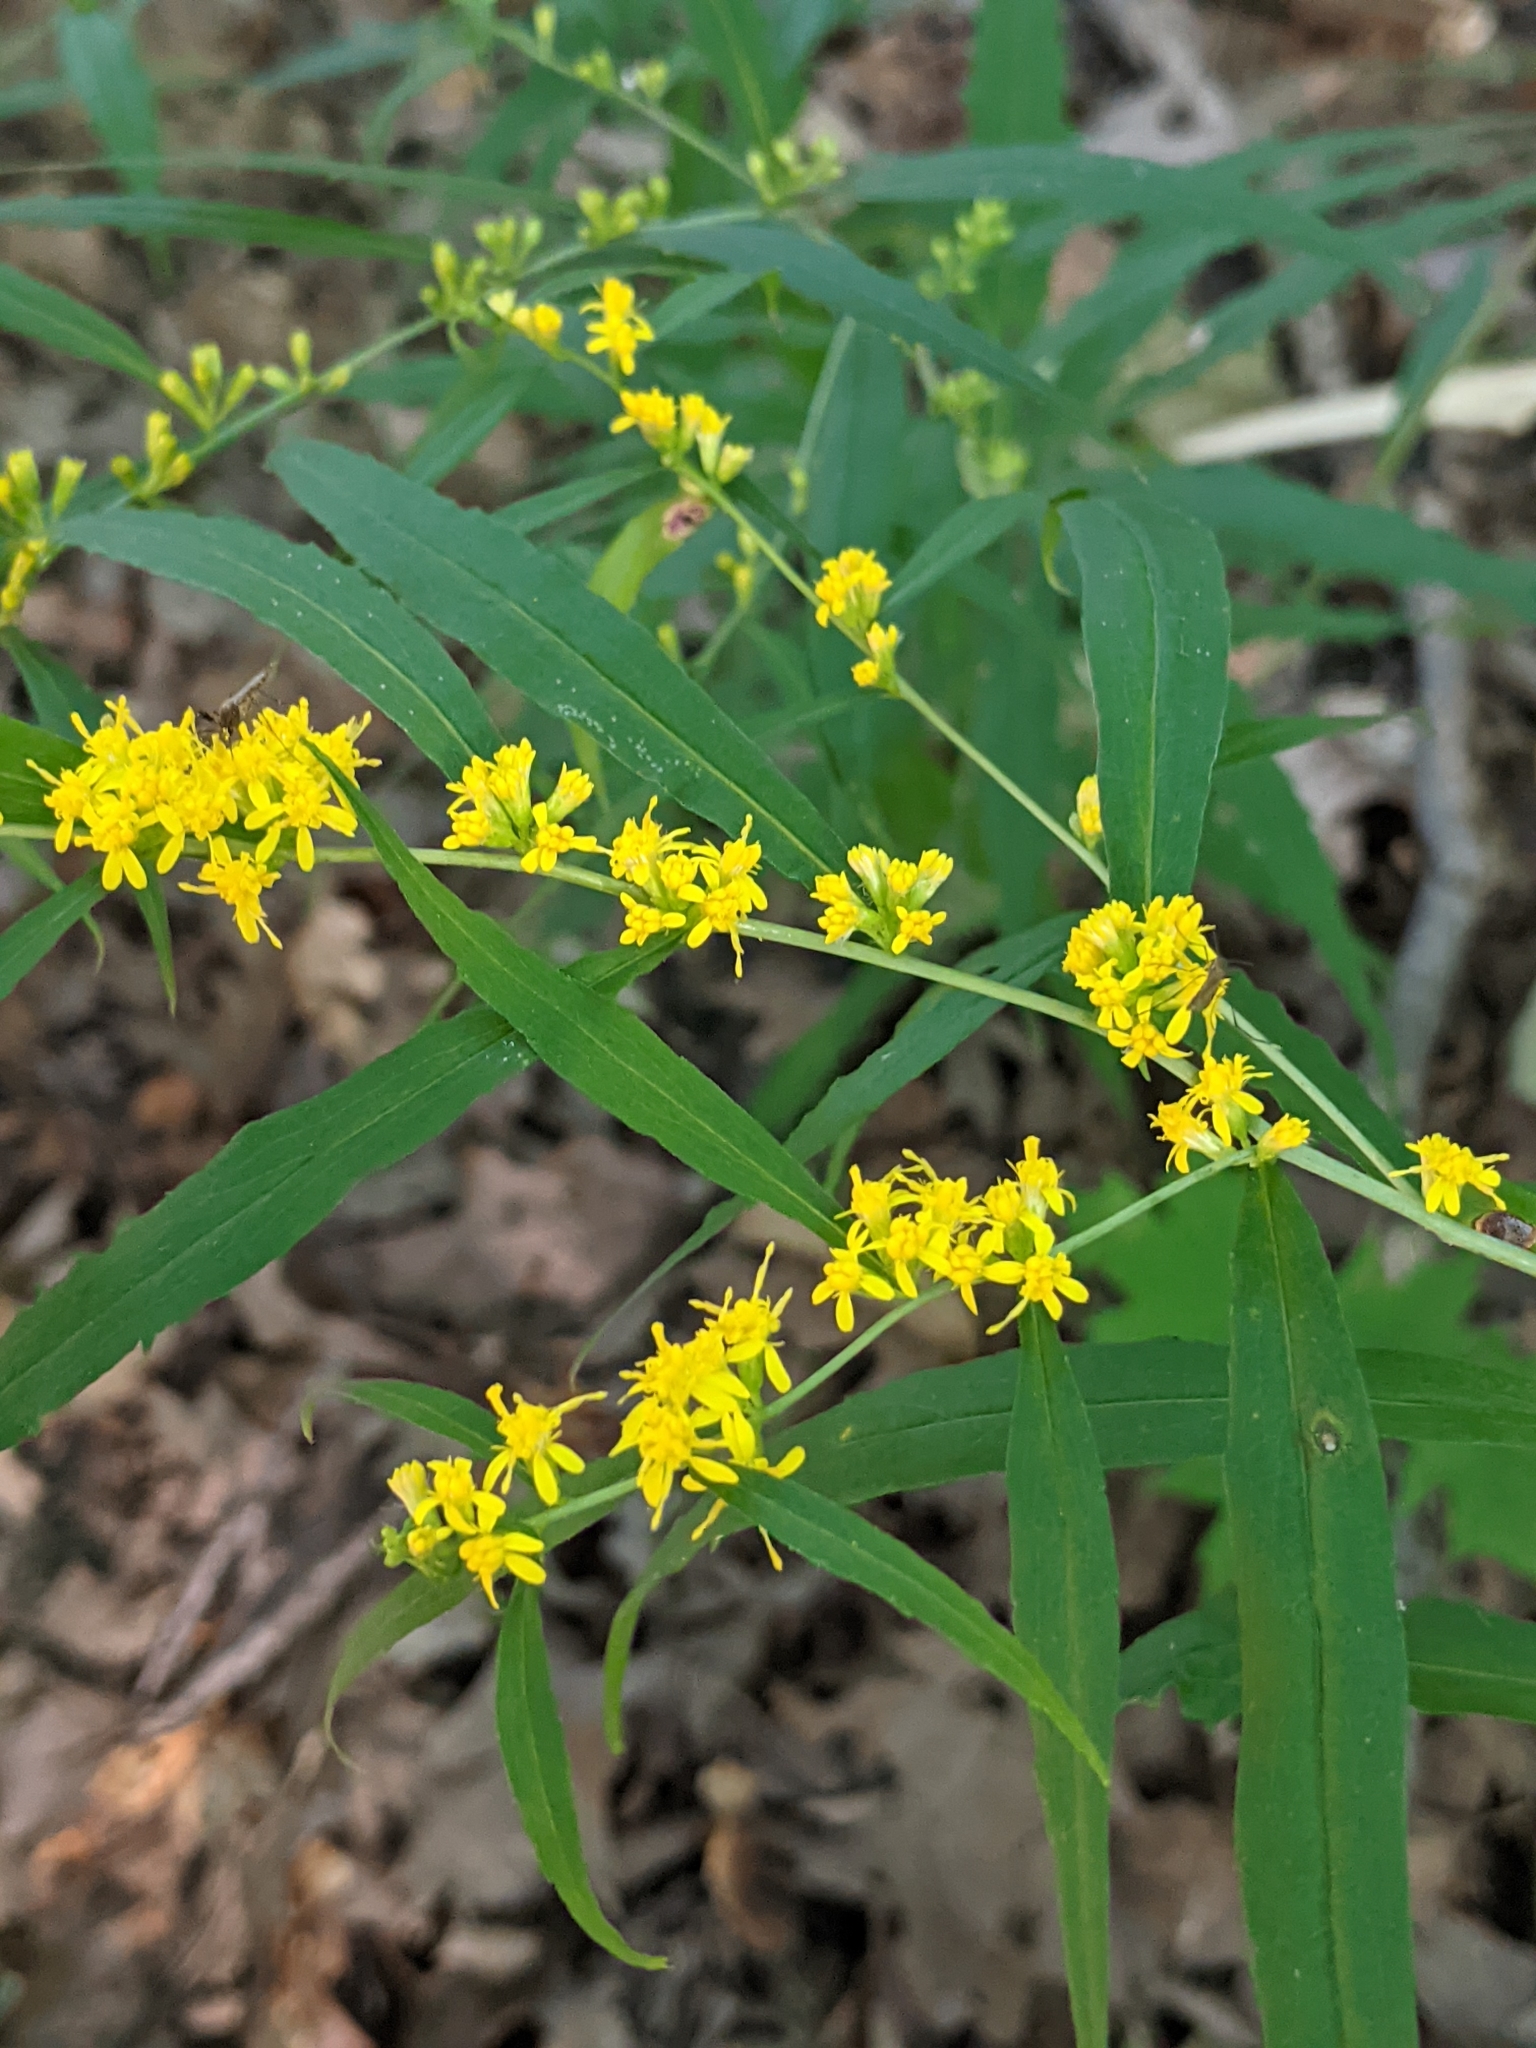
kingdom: Plantae
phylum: Tracheophyta
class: Magnoliopsida
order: Asterales
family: Asteraceae
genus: Solidago
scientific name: Solidago caesia
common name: Woodland goldenrod
